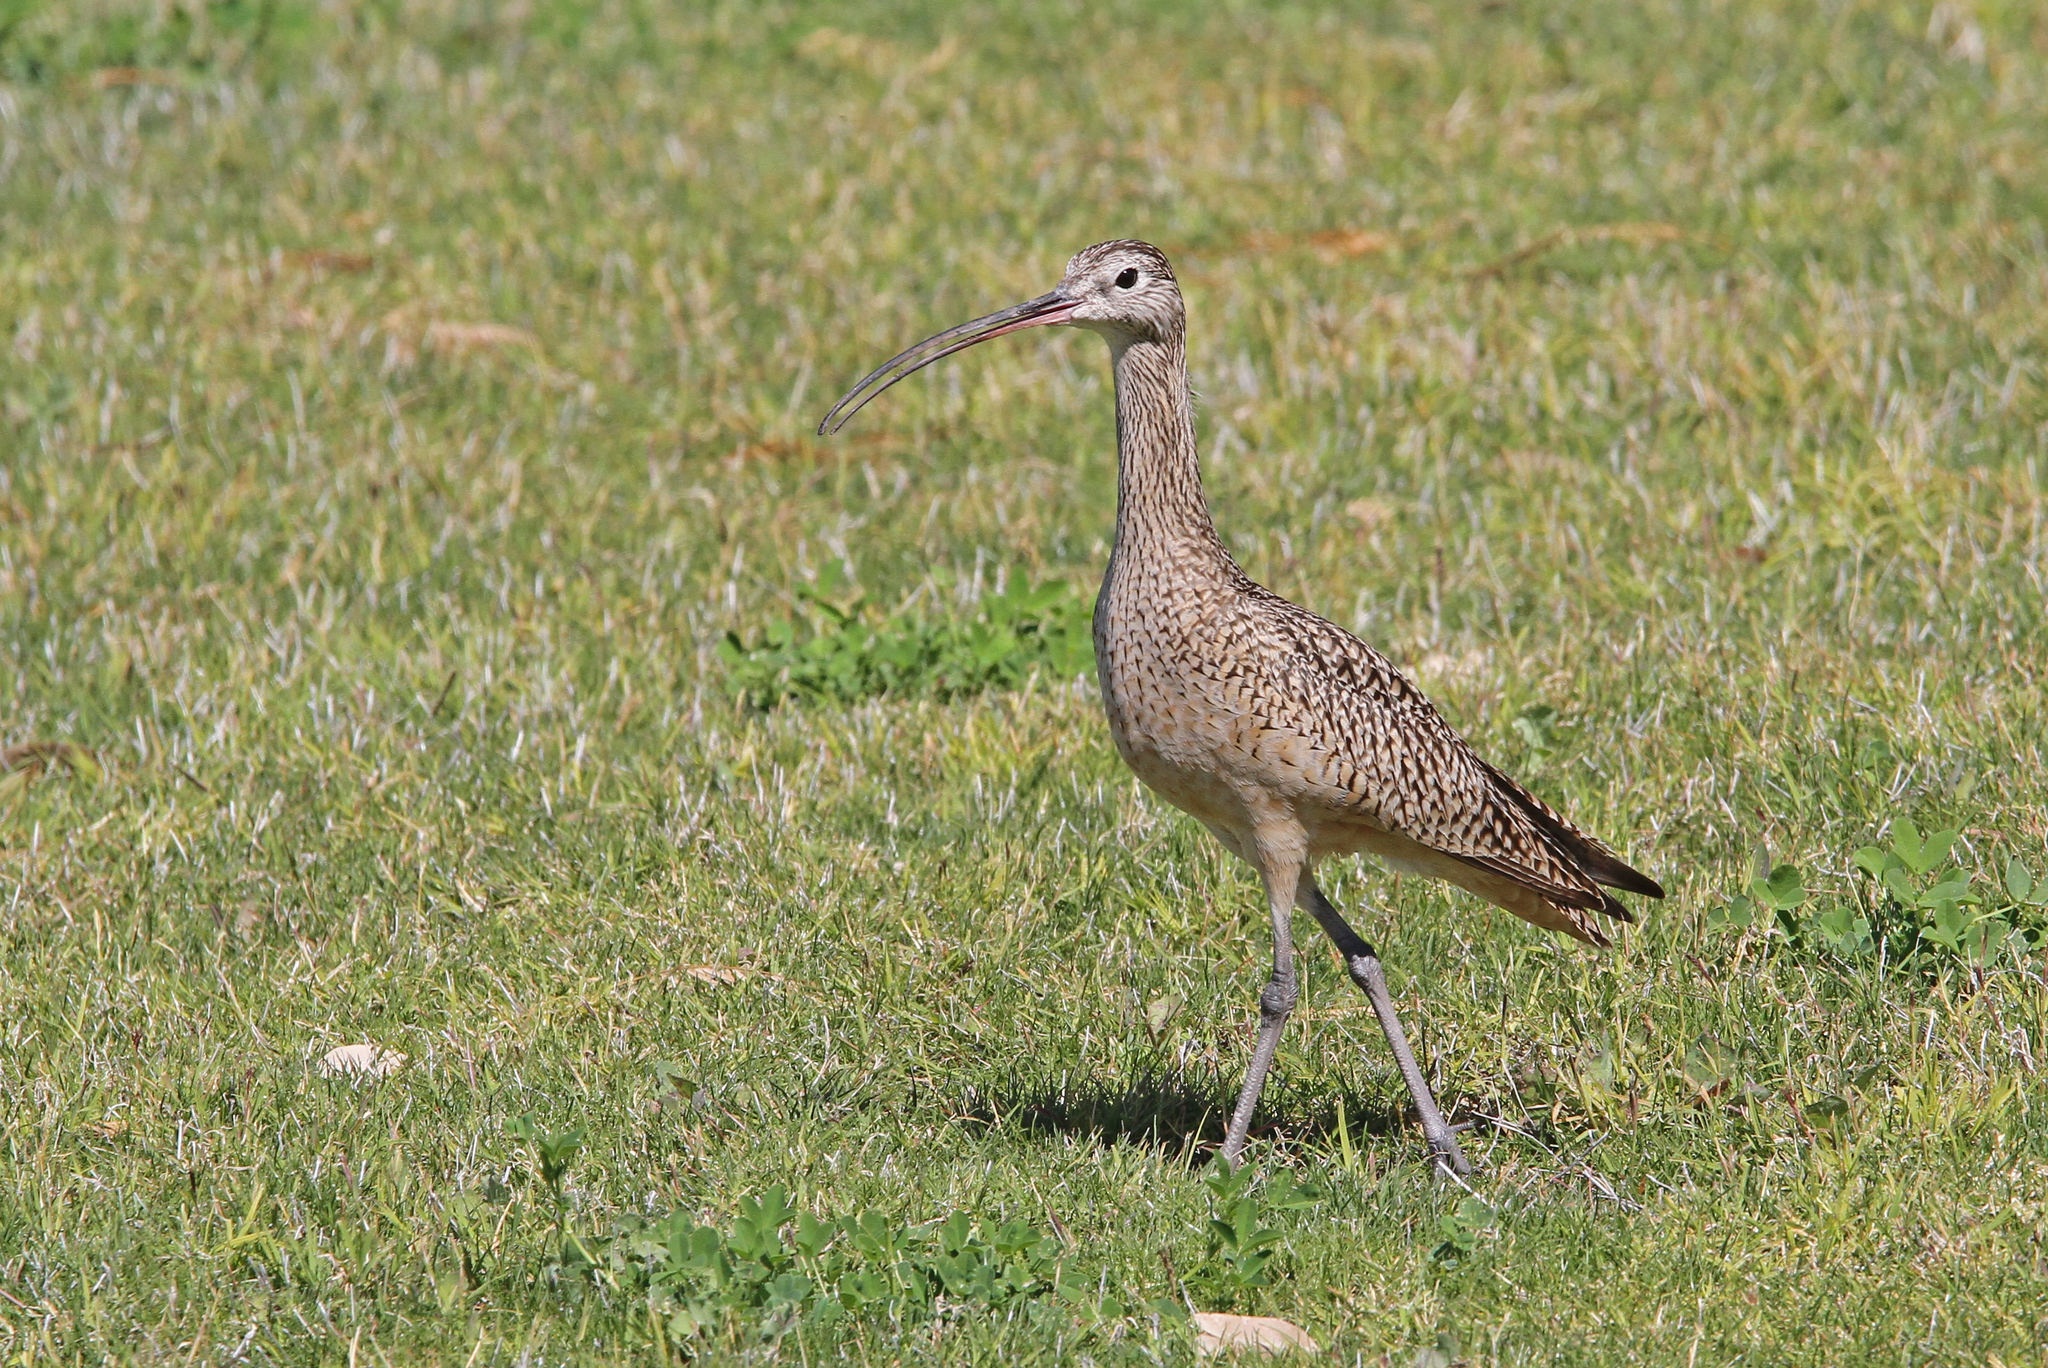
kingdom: Animalia
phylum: Chordata
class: Aves
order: Charadriiformes
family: Scolopacidae
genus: Numenius
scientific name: Numenius americanus
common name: Long-billed curlew
